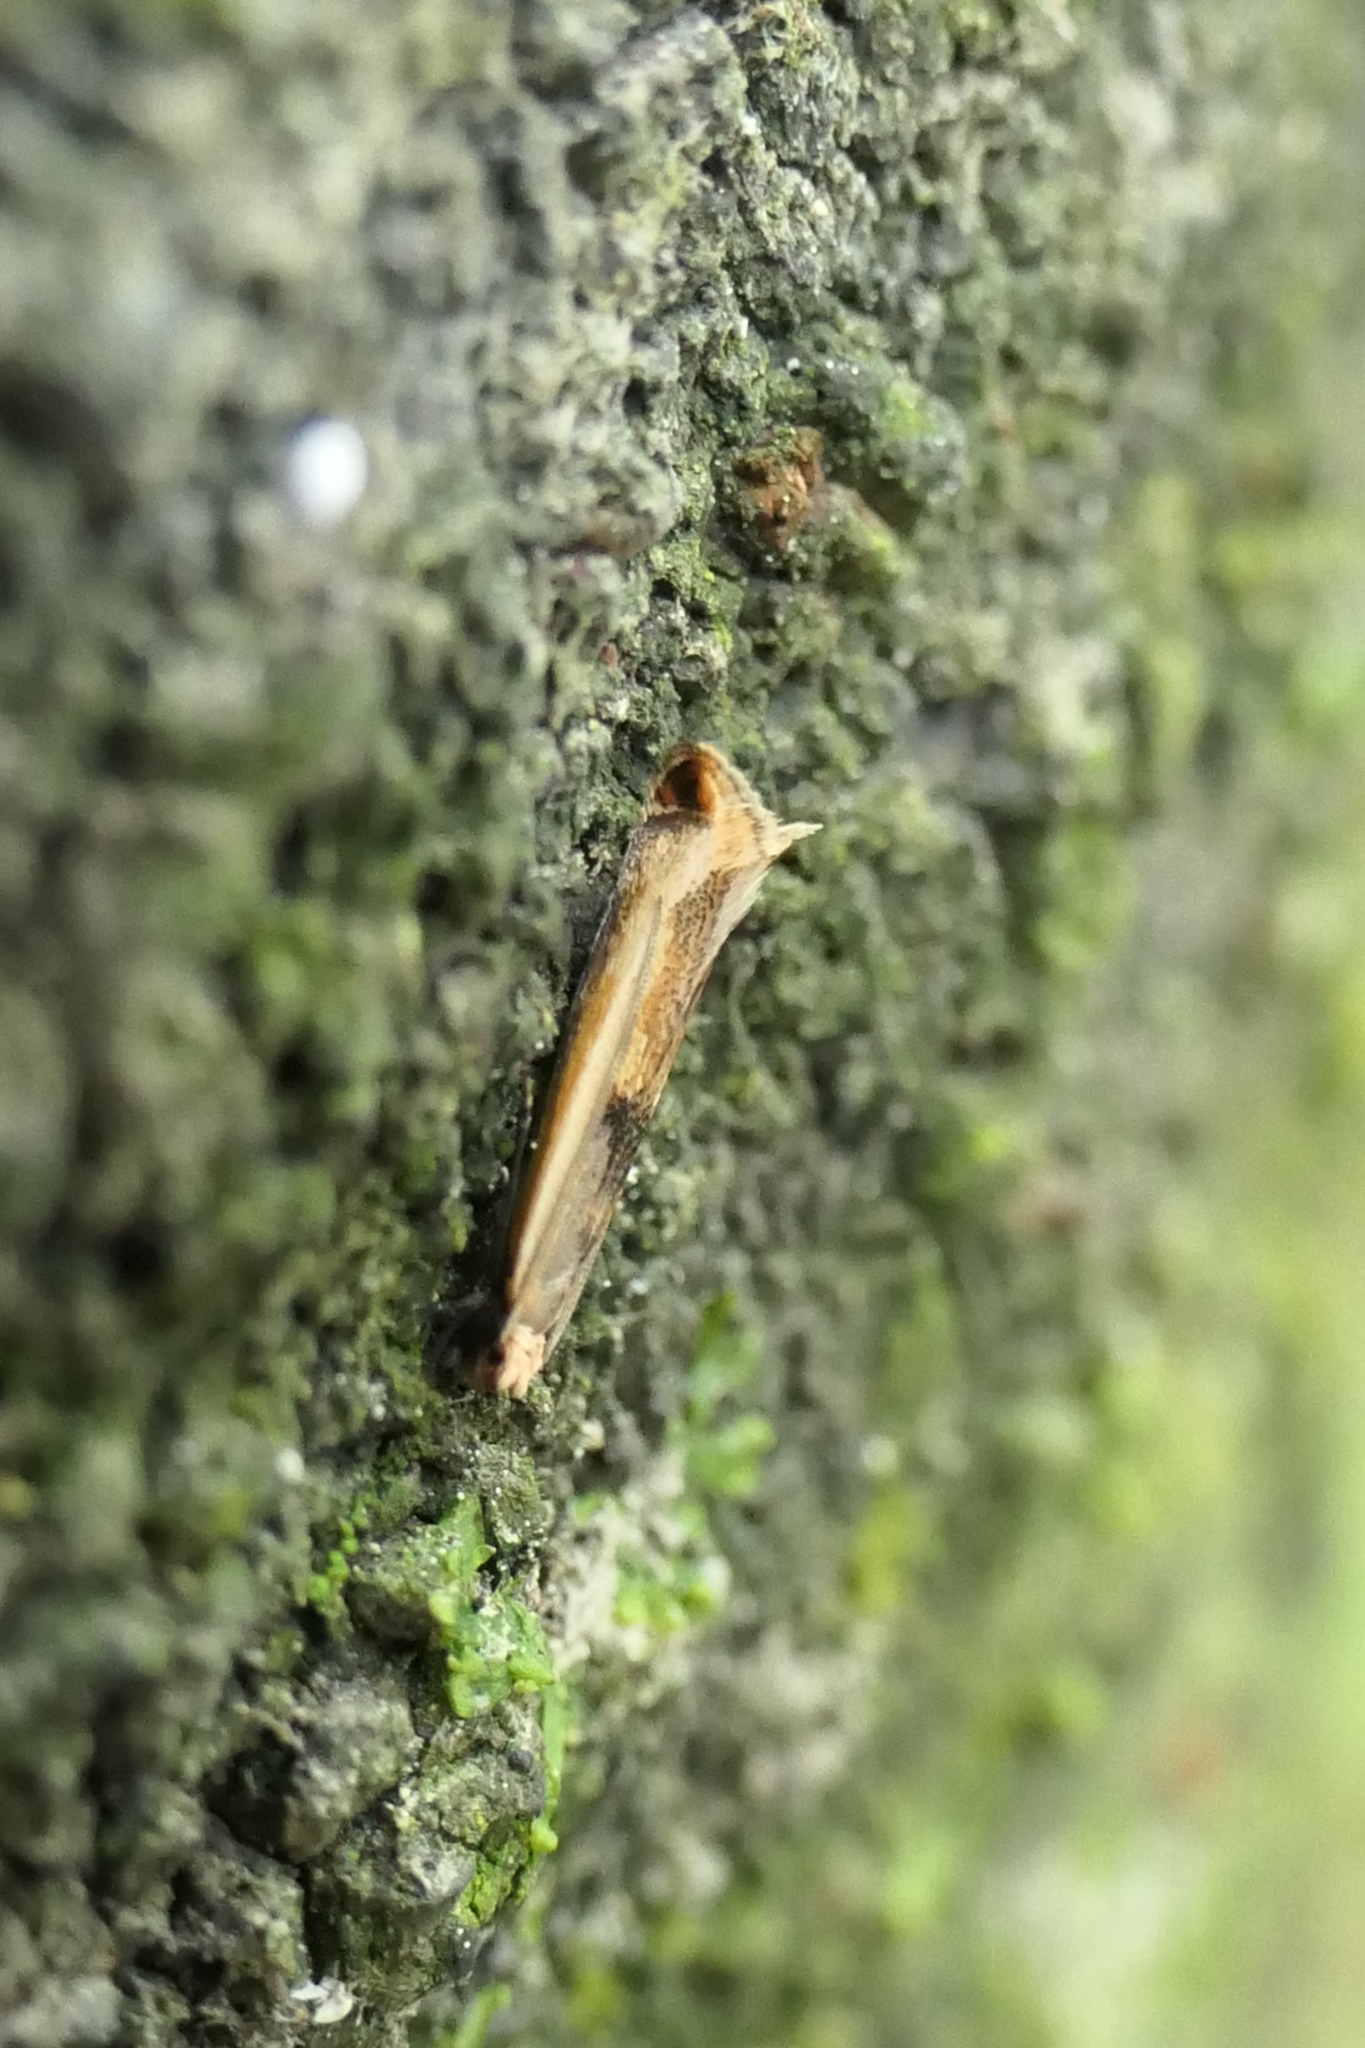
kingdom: Animalia
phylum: Arthropoda
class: Insecta
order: Lepidoptera
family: Tineidae
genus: Erechthias
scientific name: Erechthias charadrota
